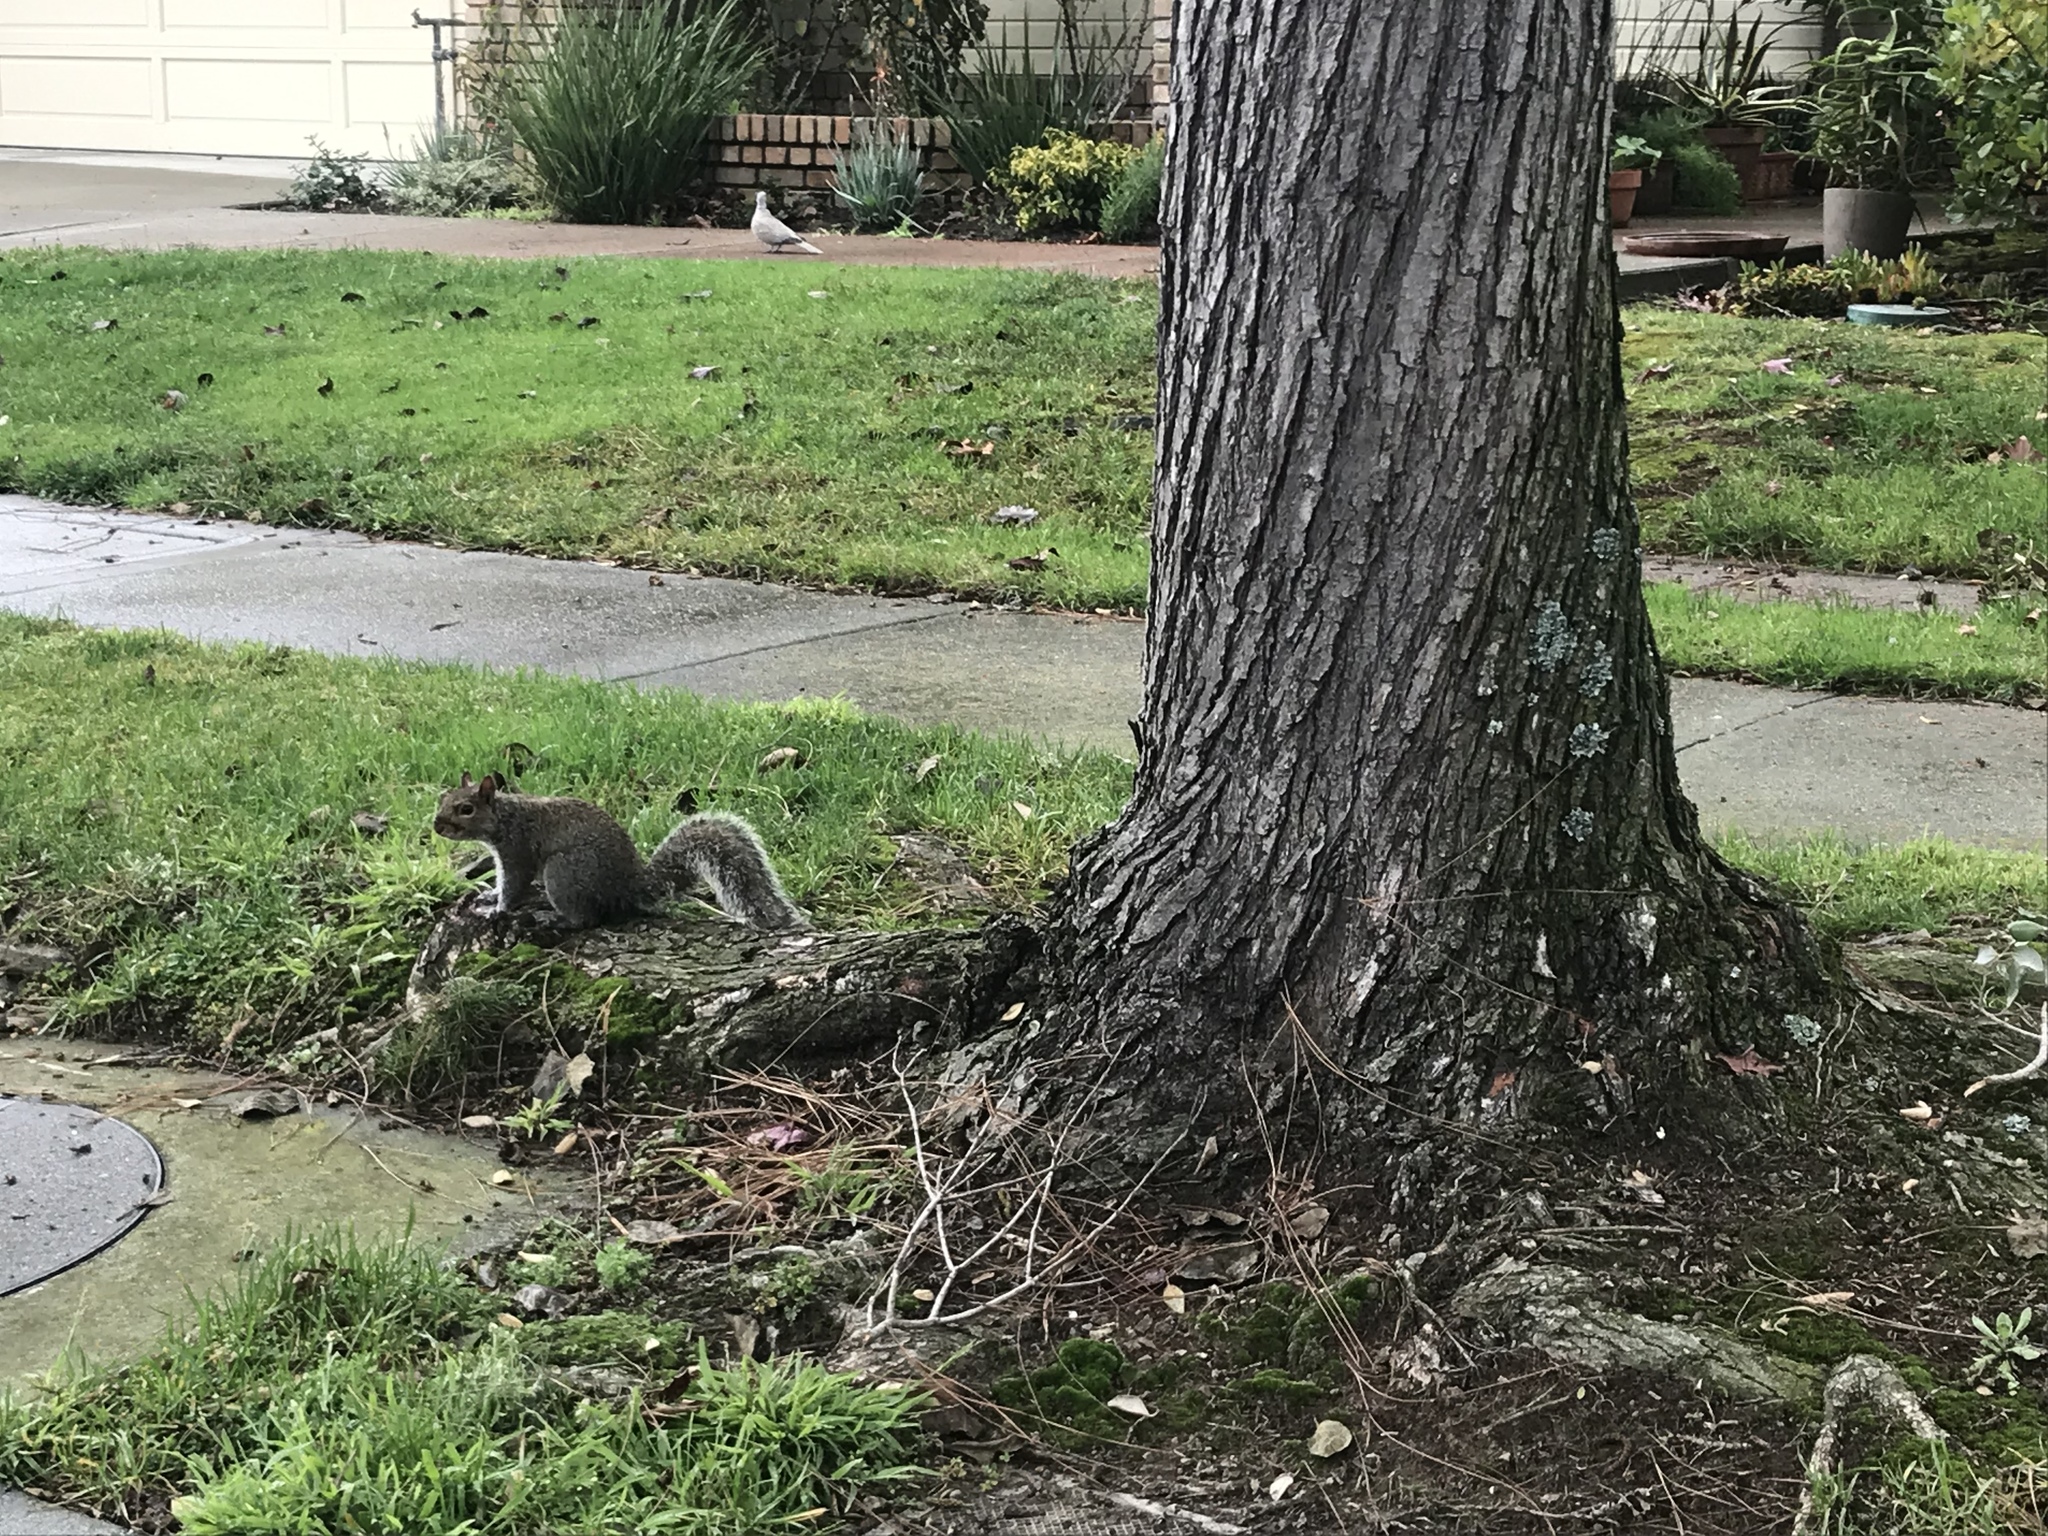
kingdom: Animalia
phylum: Chordata
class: Mammalia
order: Rodentia
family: Sciuridae
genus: Sciurus
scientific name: Sciurus carolinensis
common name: Eastern gray squirrel
